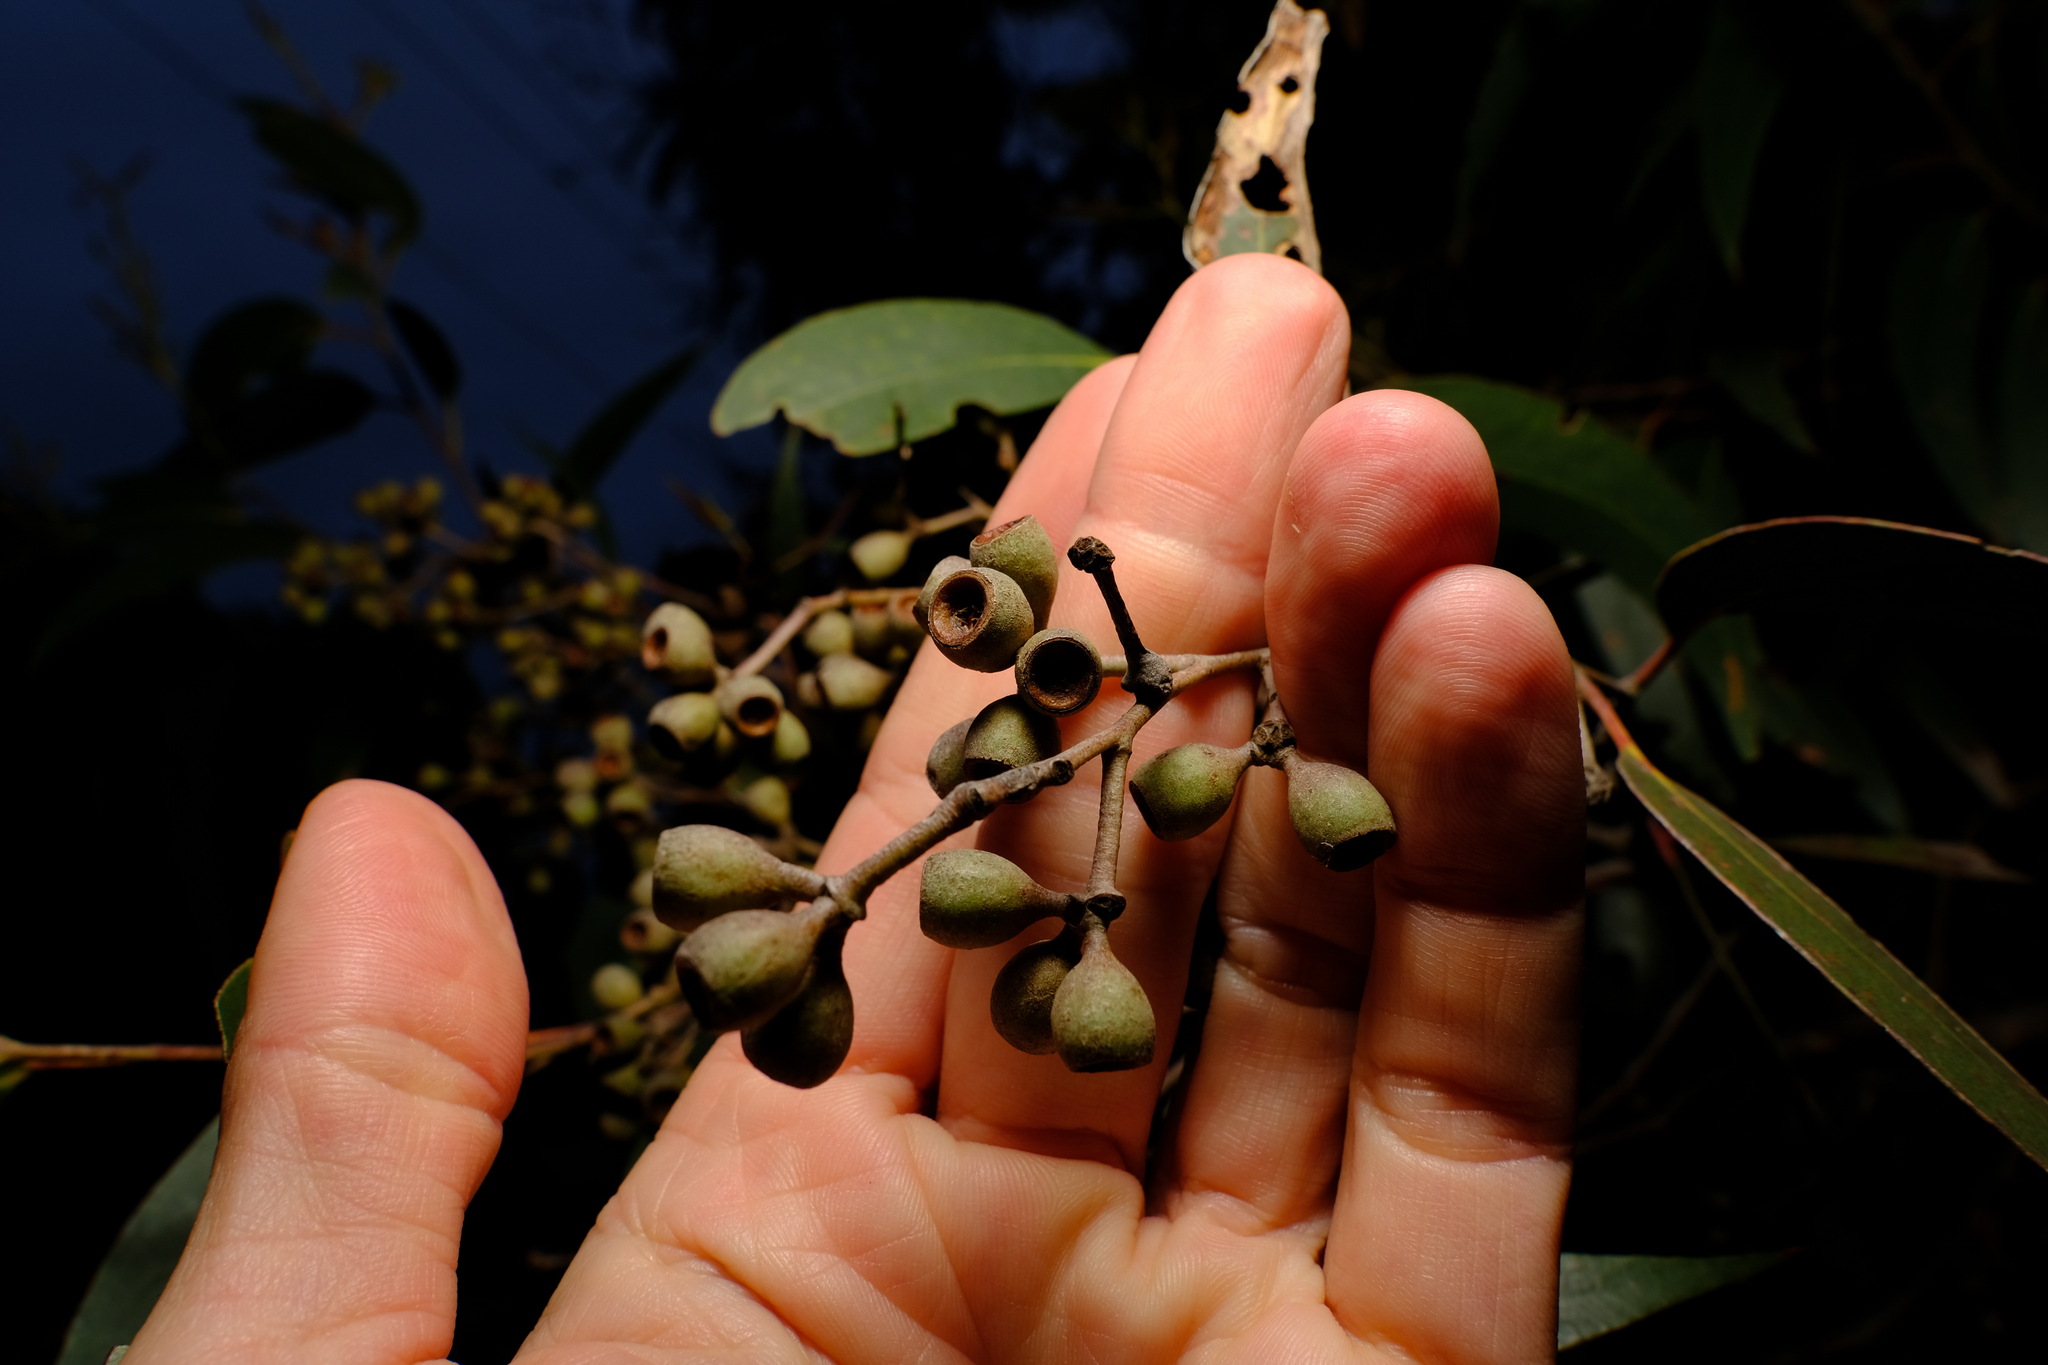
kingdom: Plantae
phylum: Tracheophyta
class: Magnoliopsida
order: Myrtales
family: Myrtaceae
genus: Eucalyptus
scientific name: Eucalyptus obliqua
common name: Messmate stringybark
